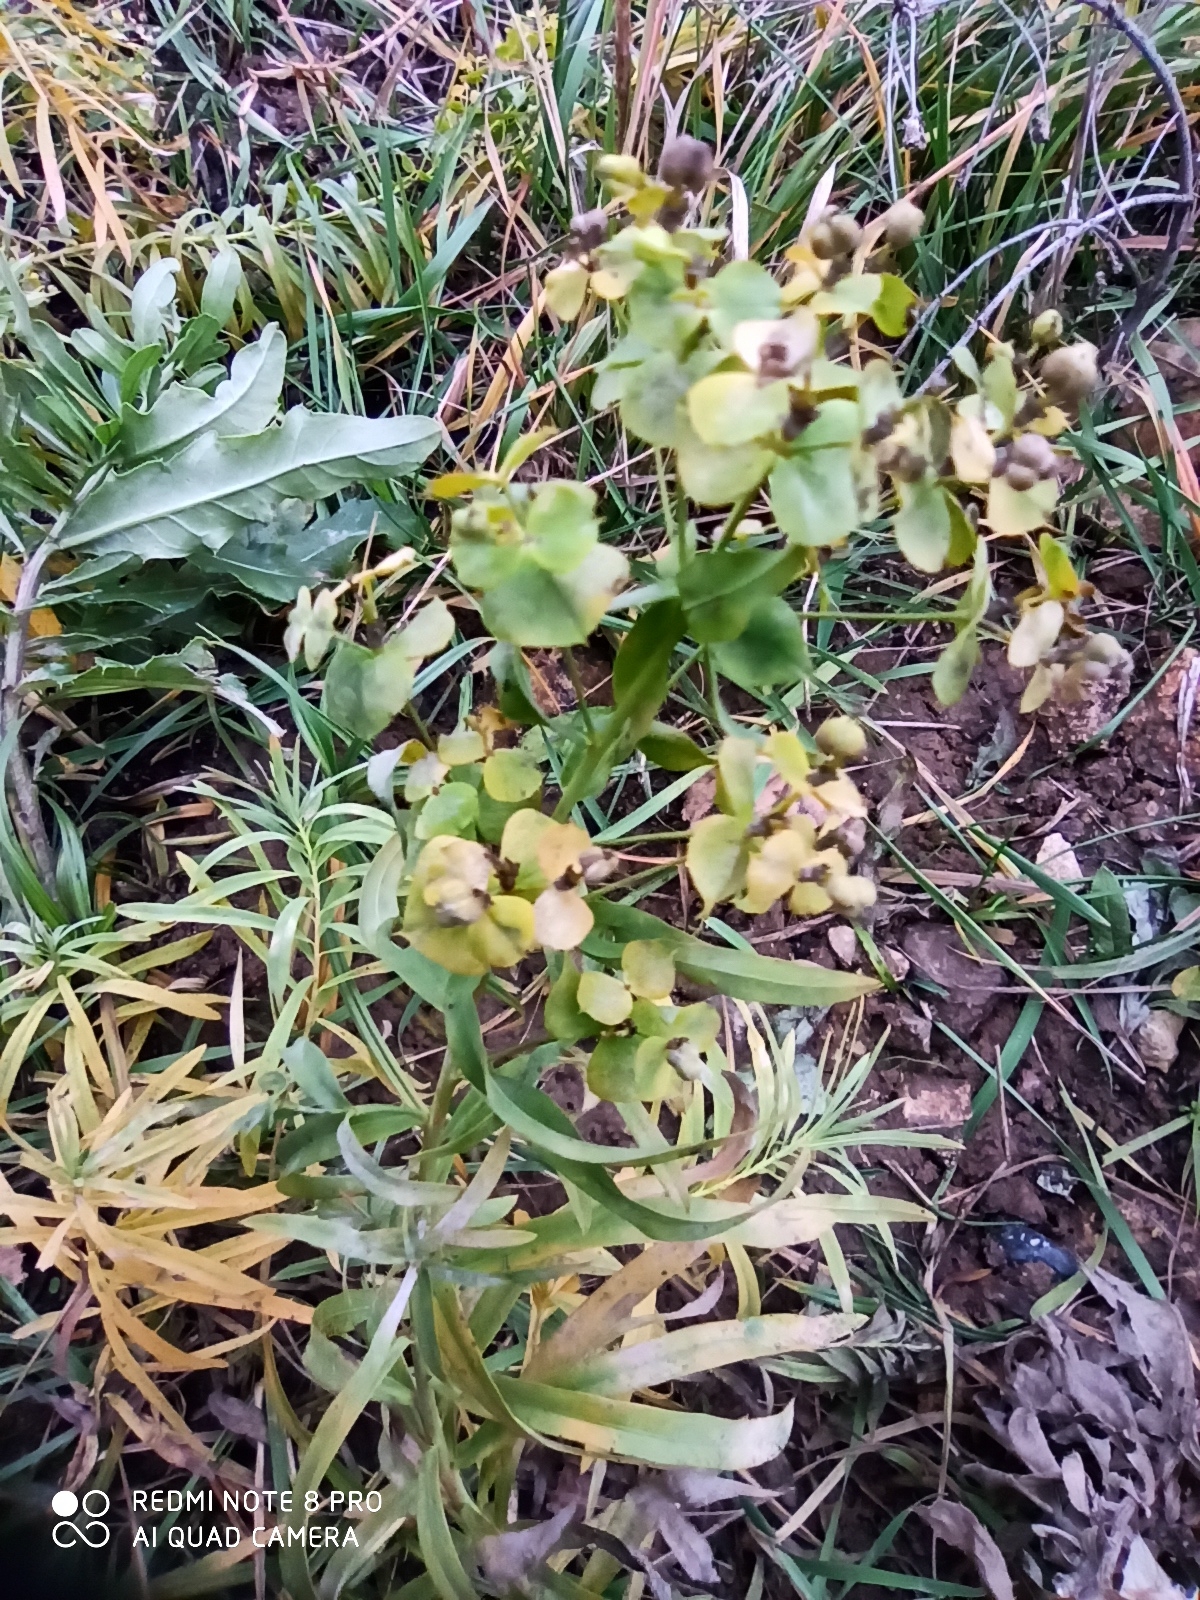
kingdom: Plantae
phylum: Tracheophyta
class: Magnoliopsida
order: Malpighiales
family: Euphorbiaceae
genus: Euphorbia
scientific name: Euphorbia virgata
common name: Leafy spurge
